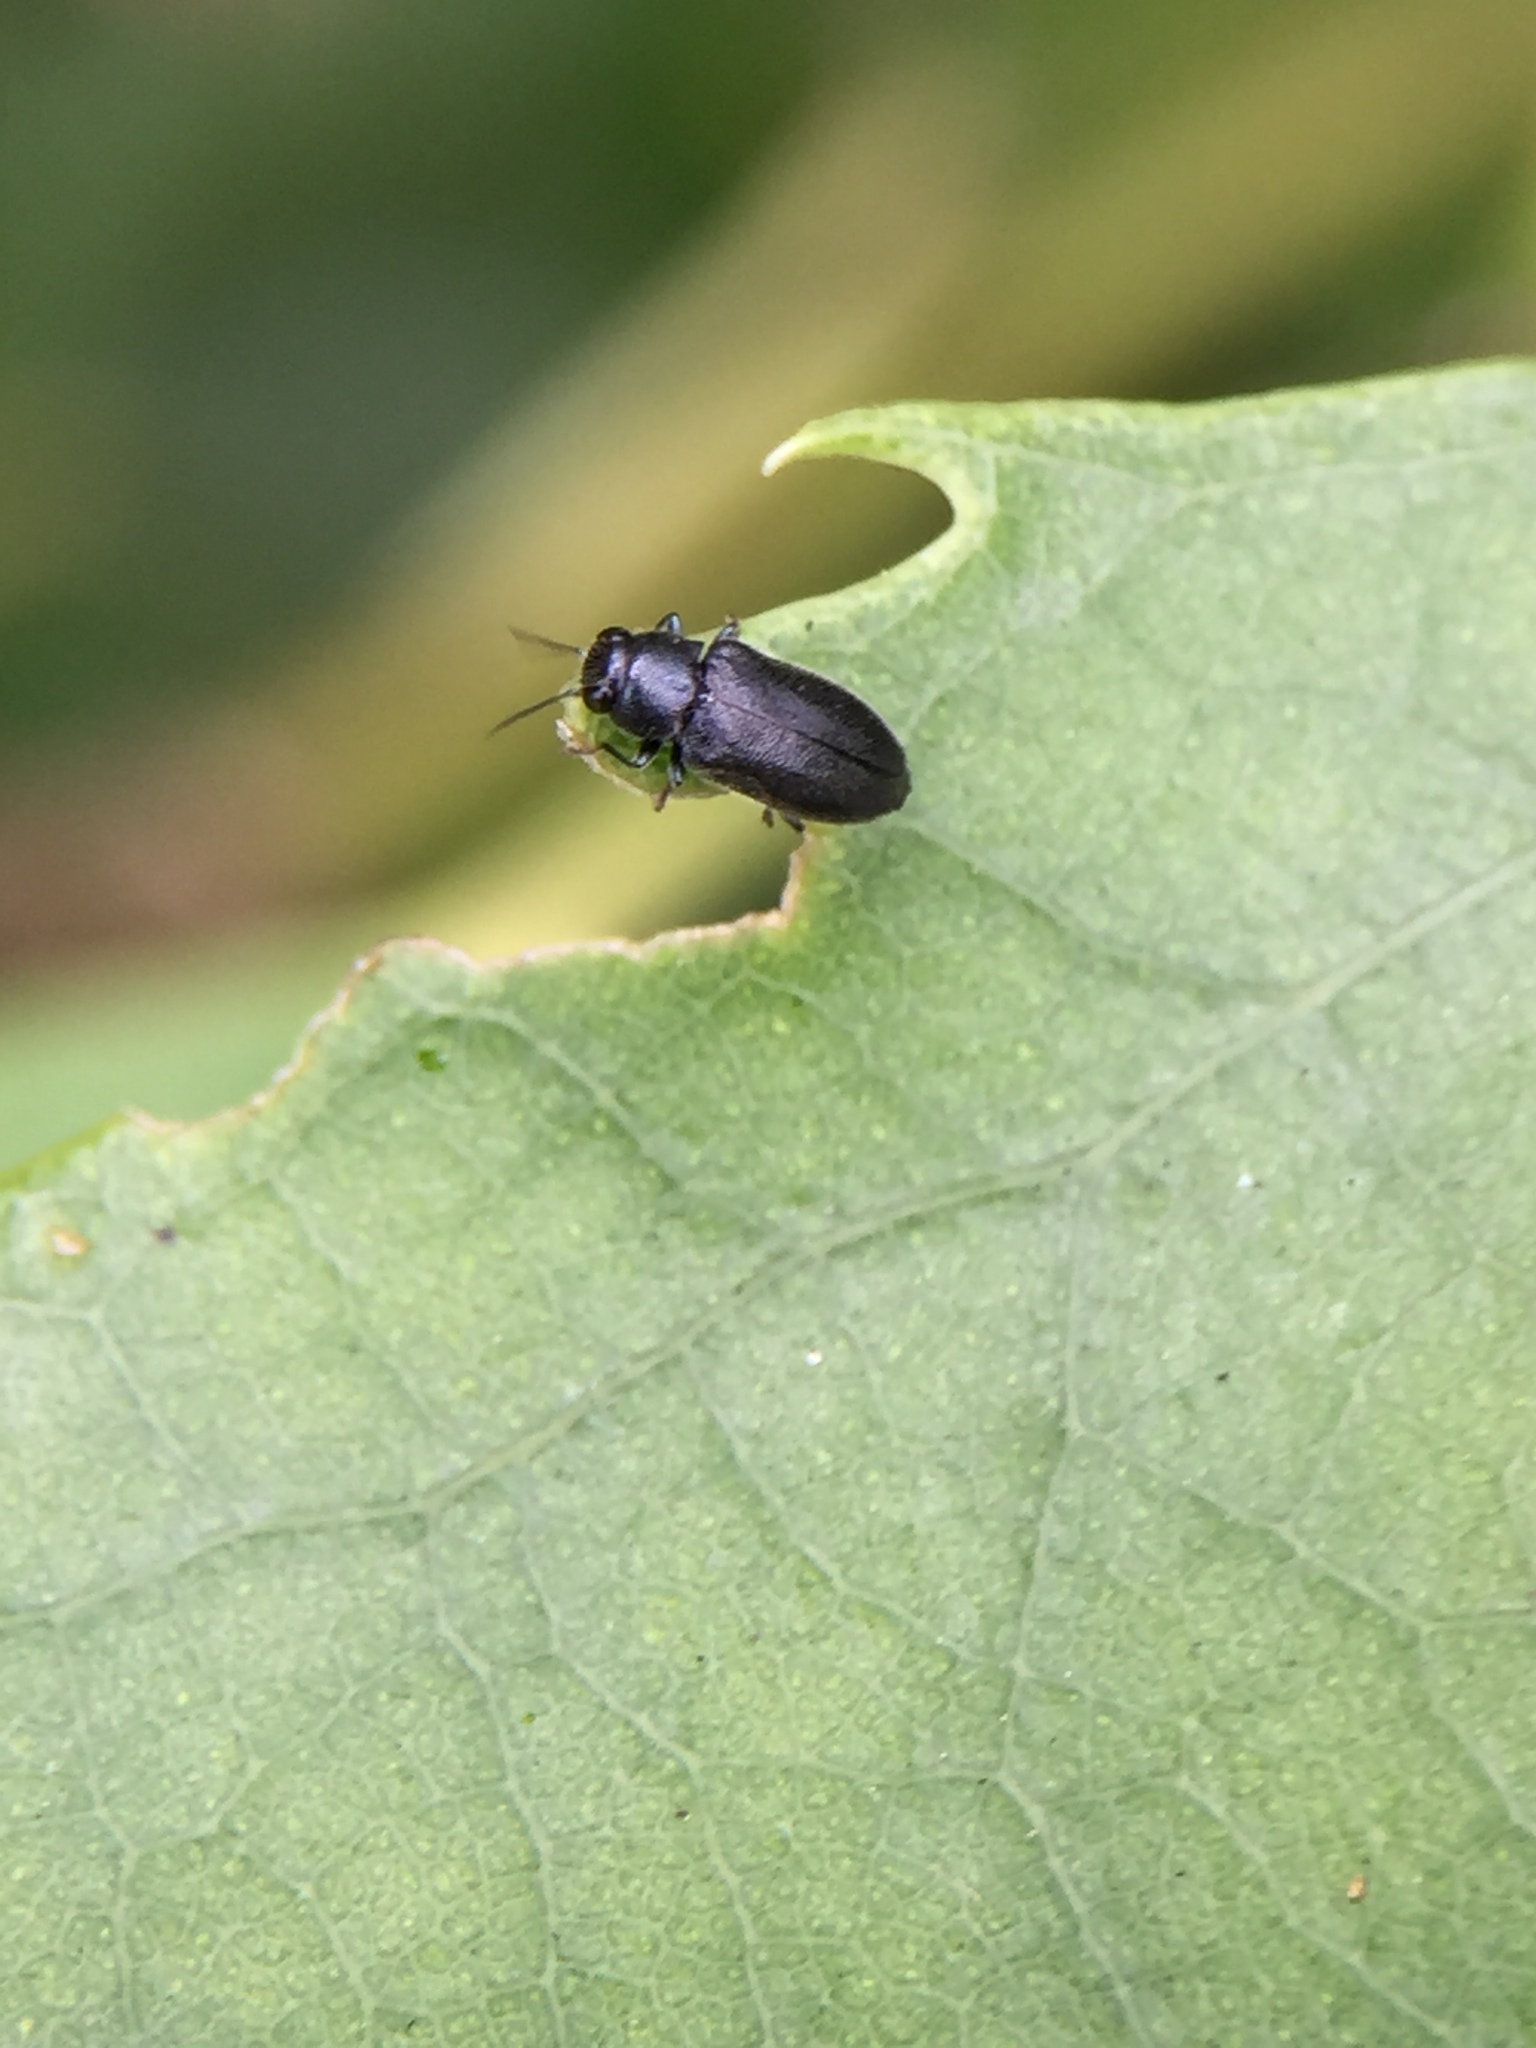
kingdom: Animalia
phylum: Arthropoda
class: Insecta
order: Coleoptera
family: Buprestidae
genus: Maoraxia
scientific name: Maoraxia eremita
